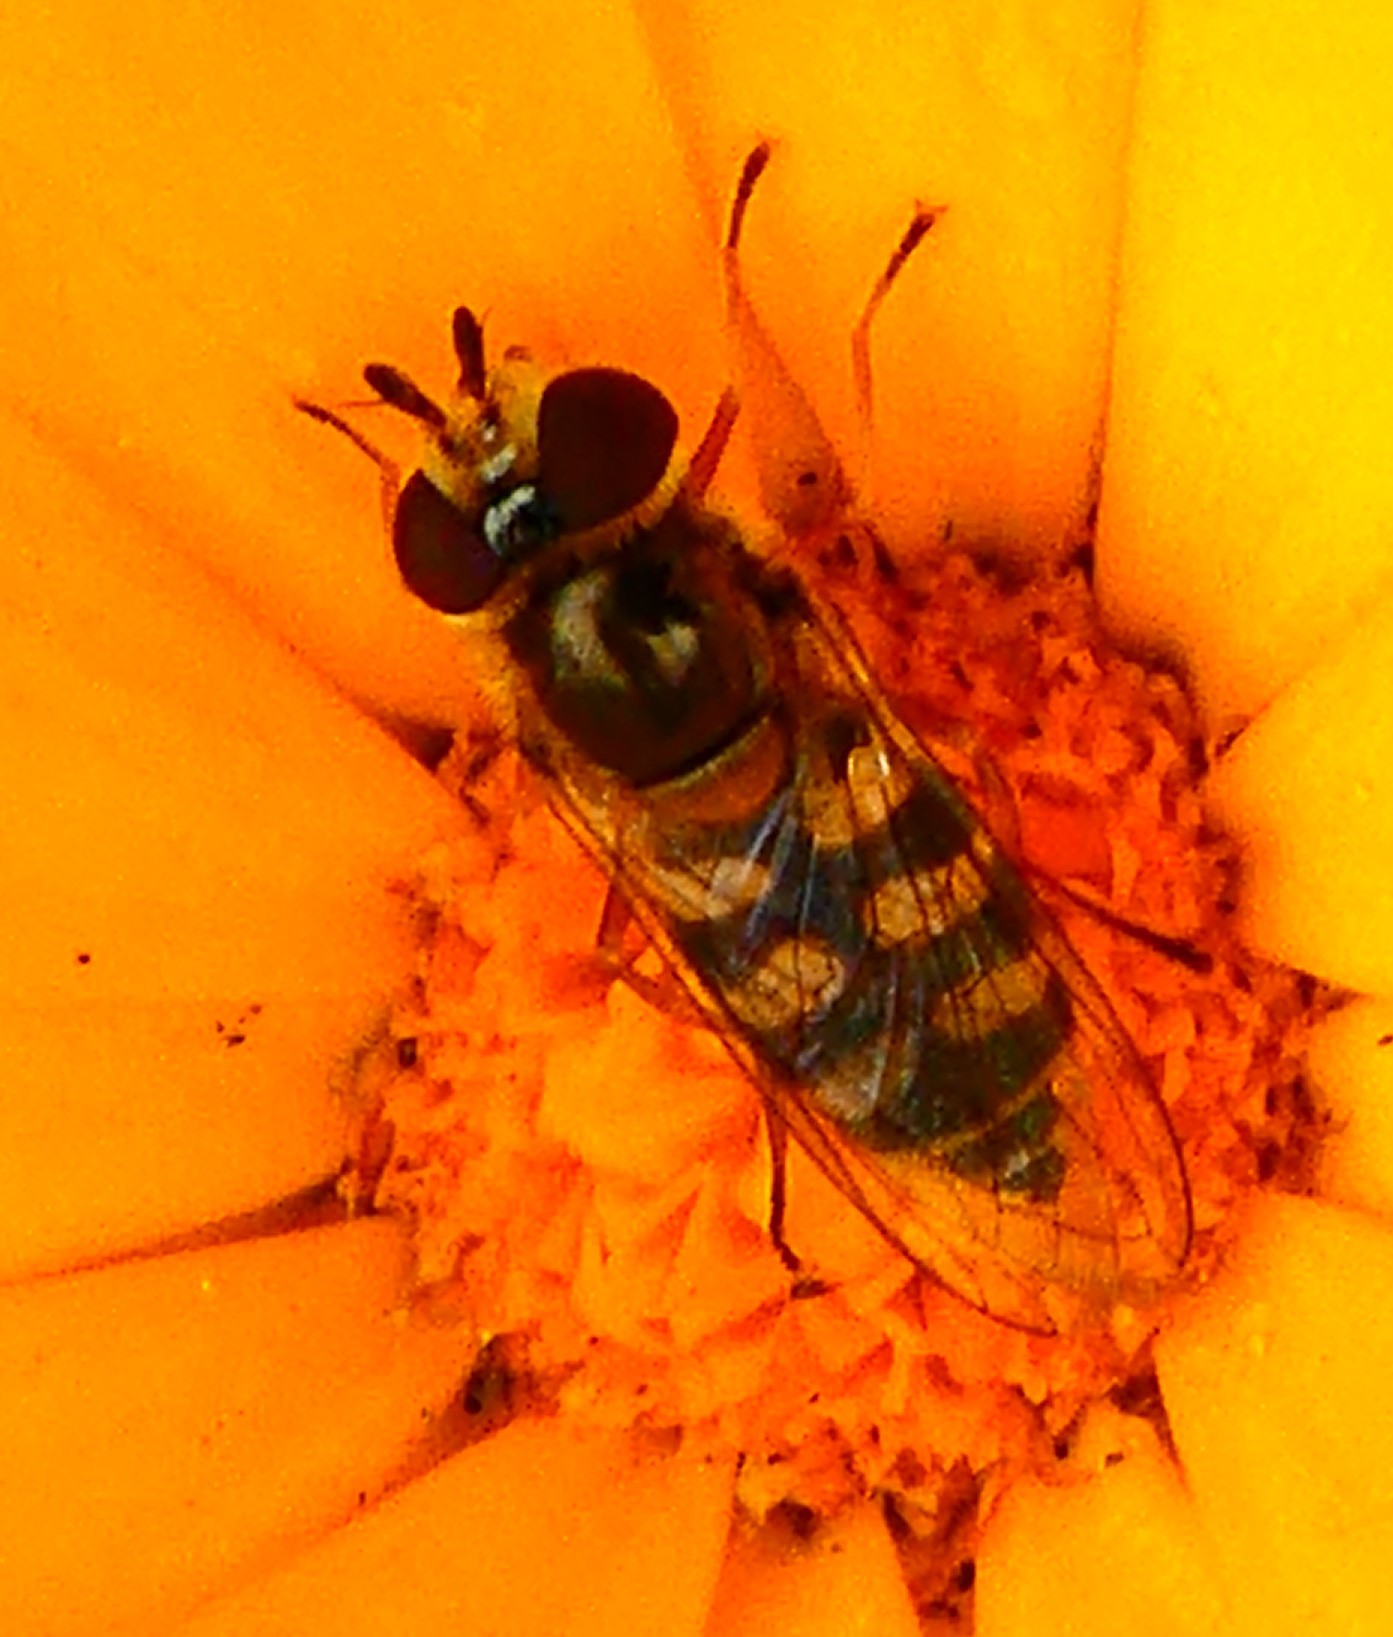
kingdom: Animalia
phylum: Arthropoda
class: Insecta
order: Diptera
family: Syrphidae
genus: Eupeodes
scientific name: Eupeodes
